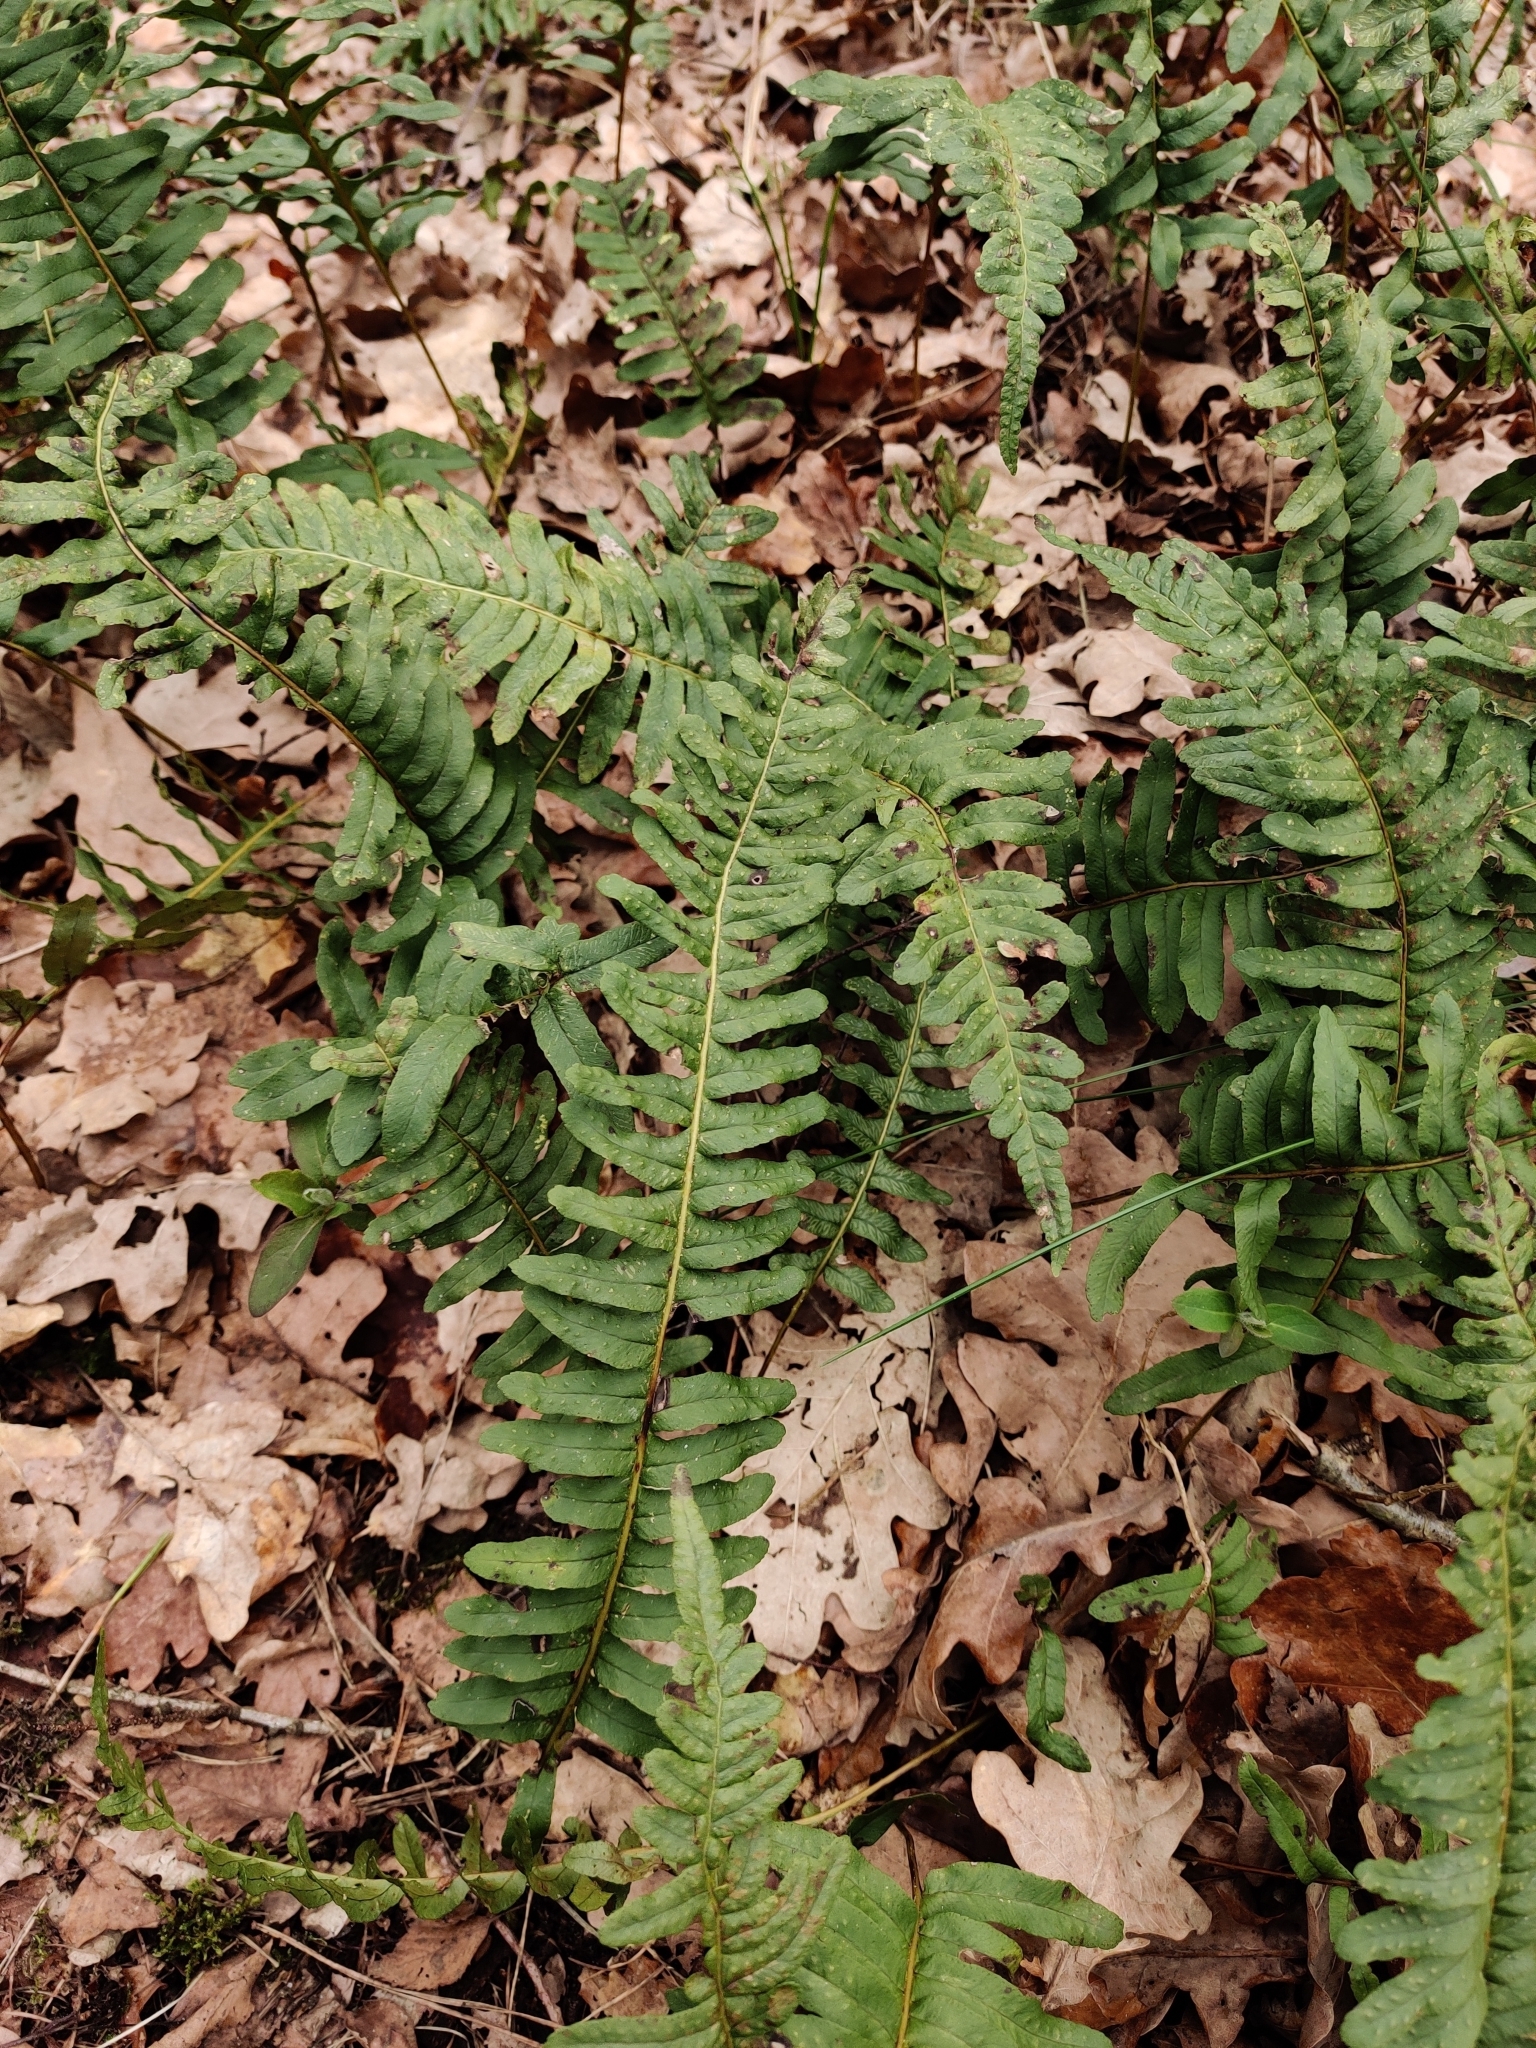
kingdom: Plantae
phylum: Tracheophyta
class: Polypodiopsida
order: Polypodiales
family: Polypodiaceae
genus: Polypodium
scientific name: Polypodium vulgare
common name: Common polypody
